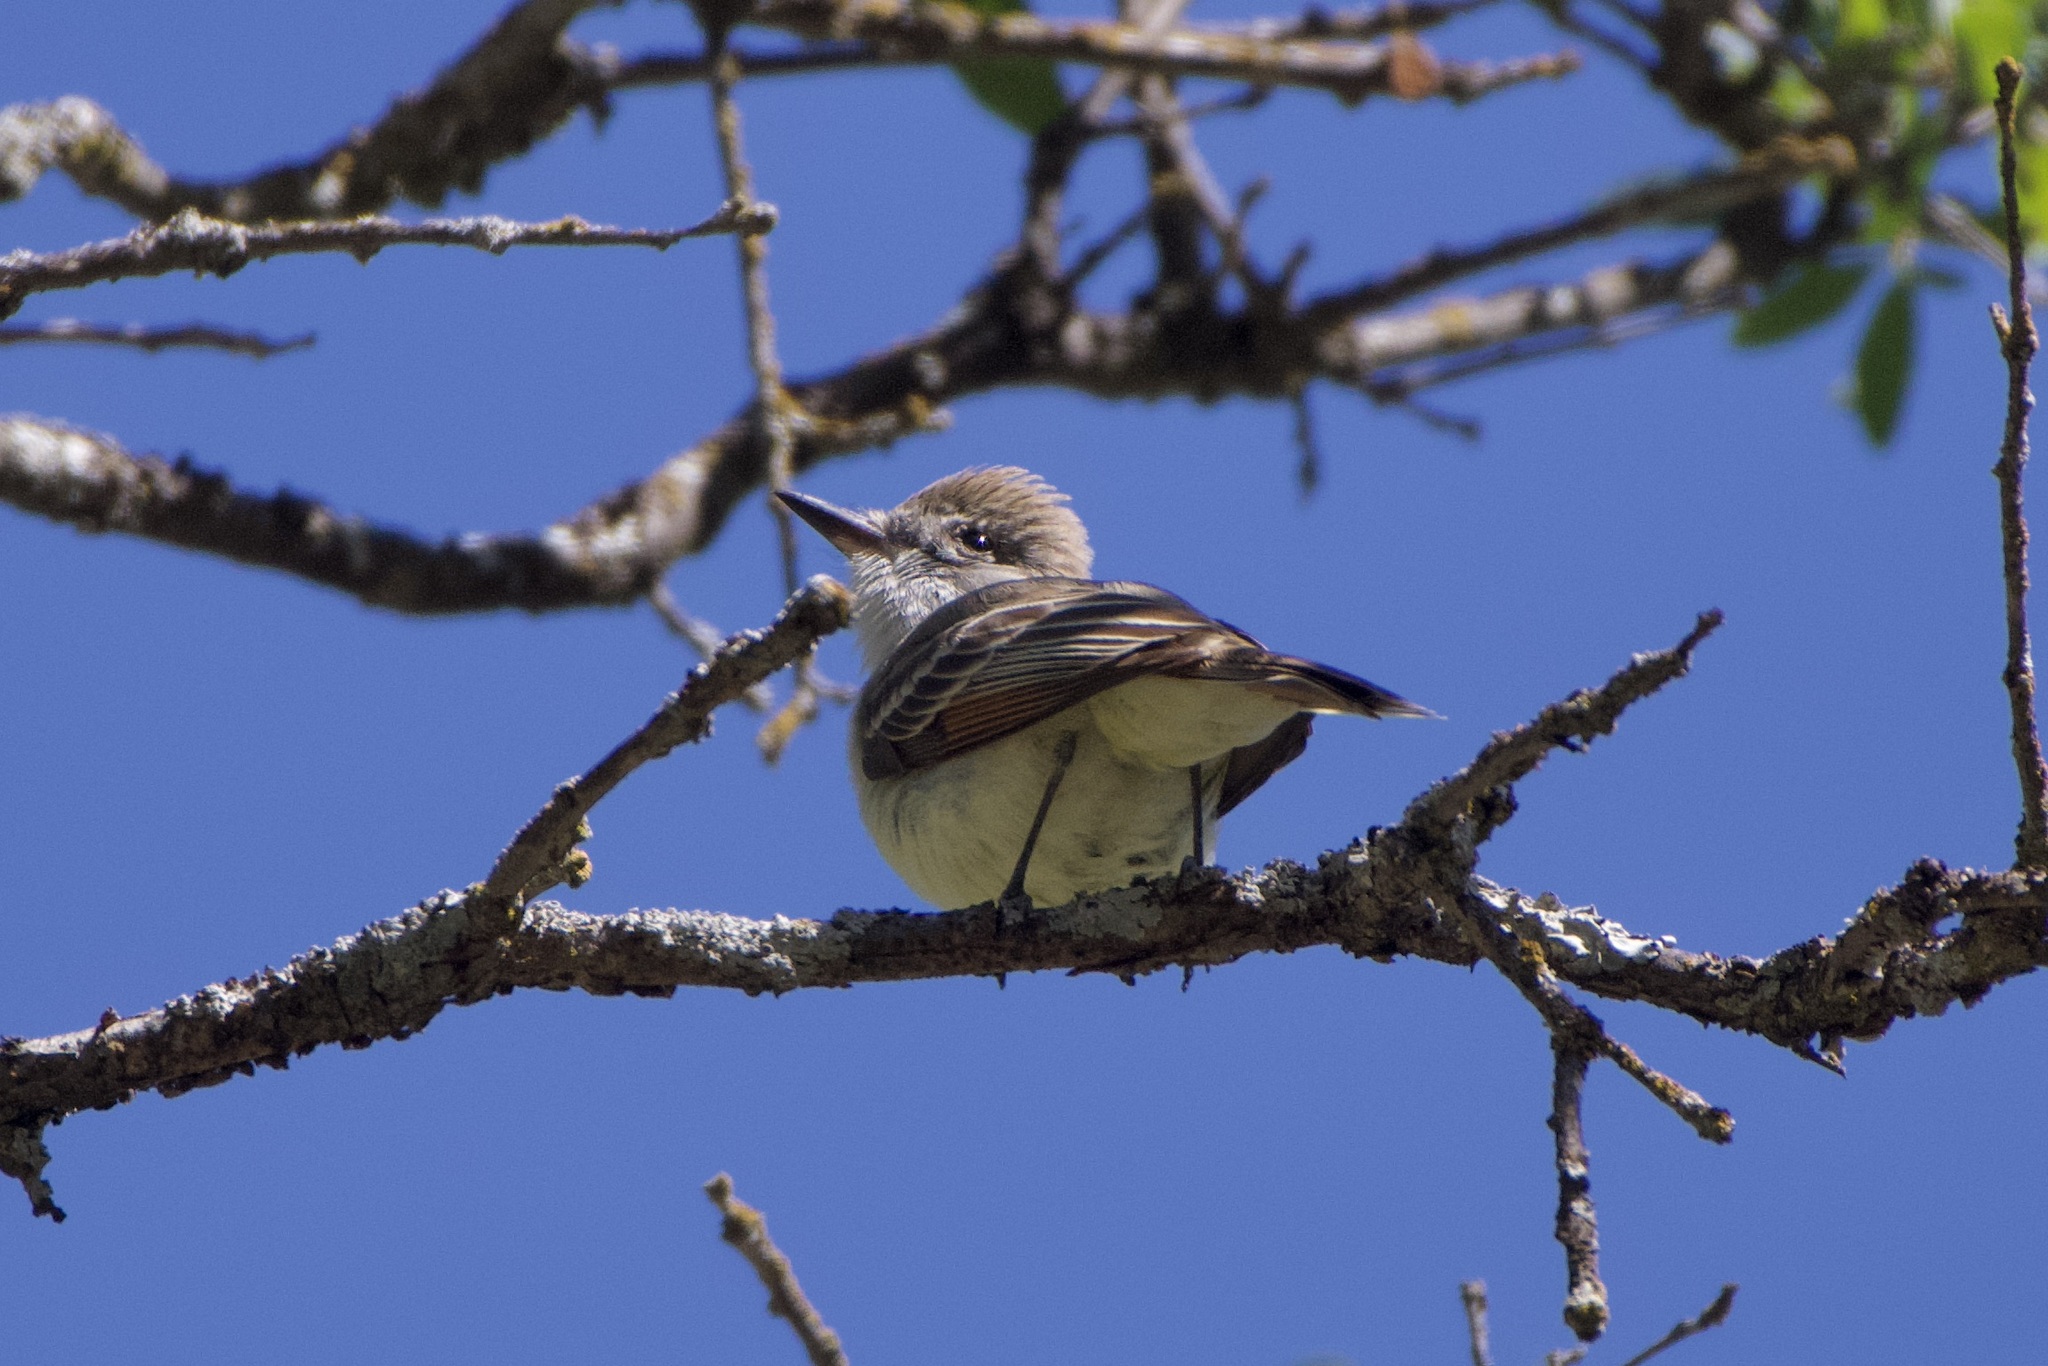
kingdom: Animalia
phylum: Chordata
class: Aves
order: Passeriformes
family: Tyrannidae
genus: Myiarchus
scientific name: Myiarchus cinerascens
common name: Ash-throated flycatcher
